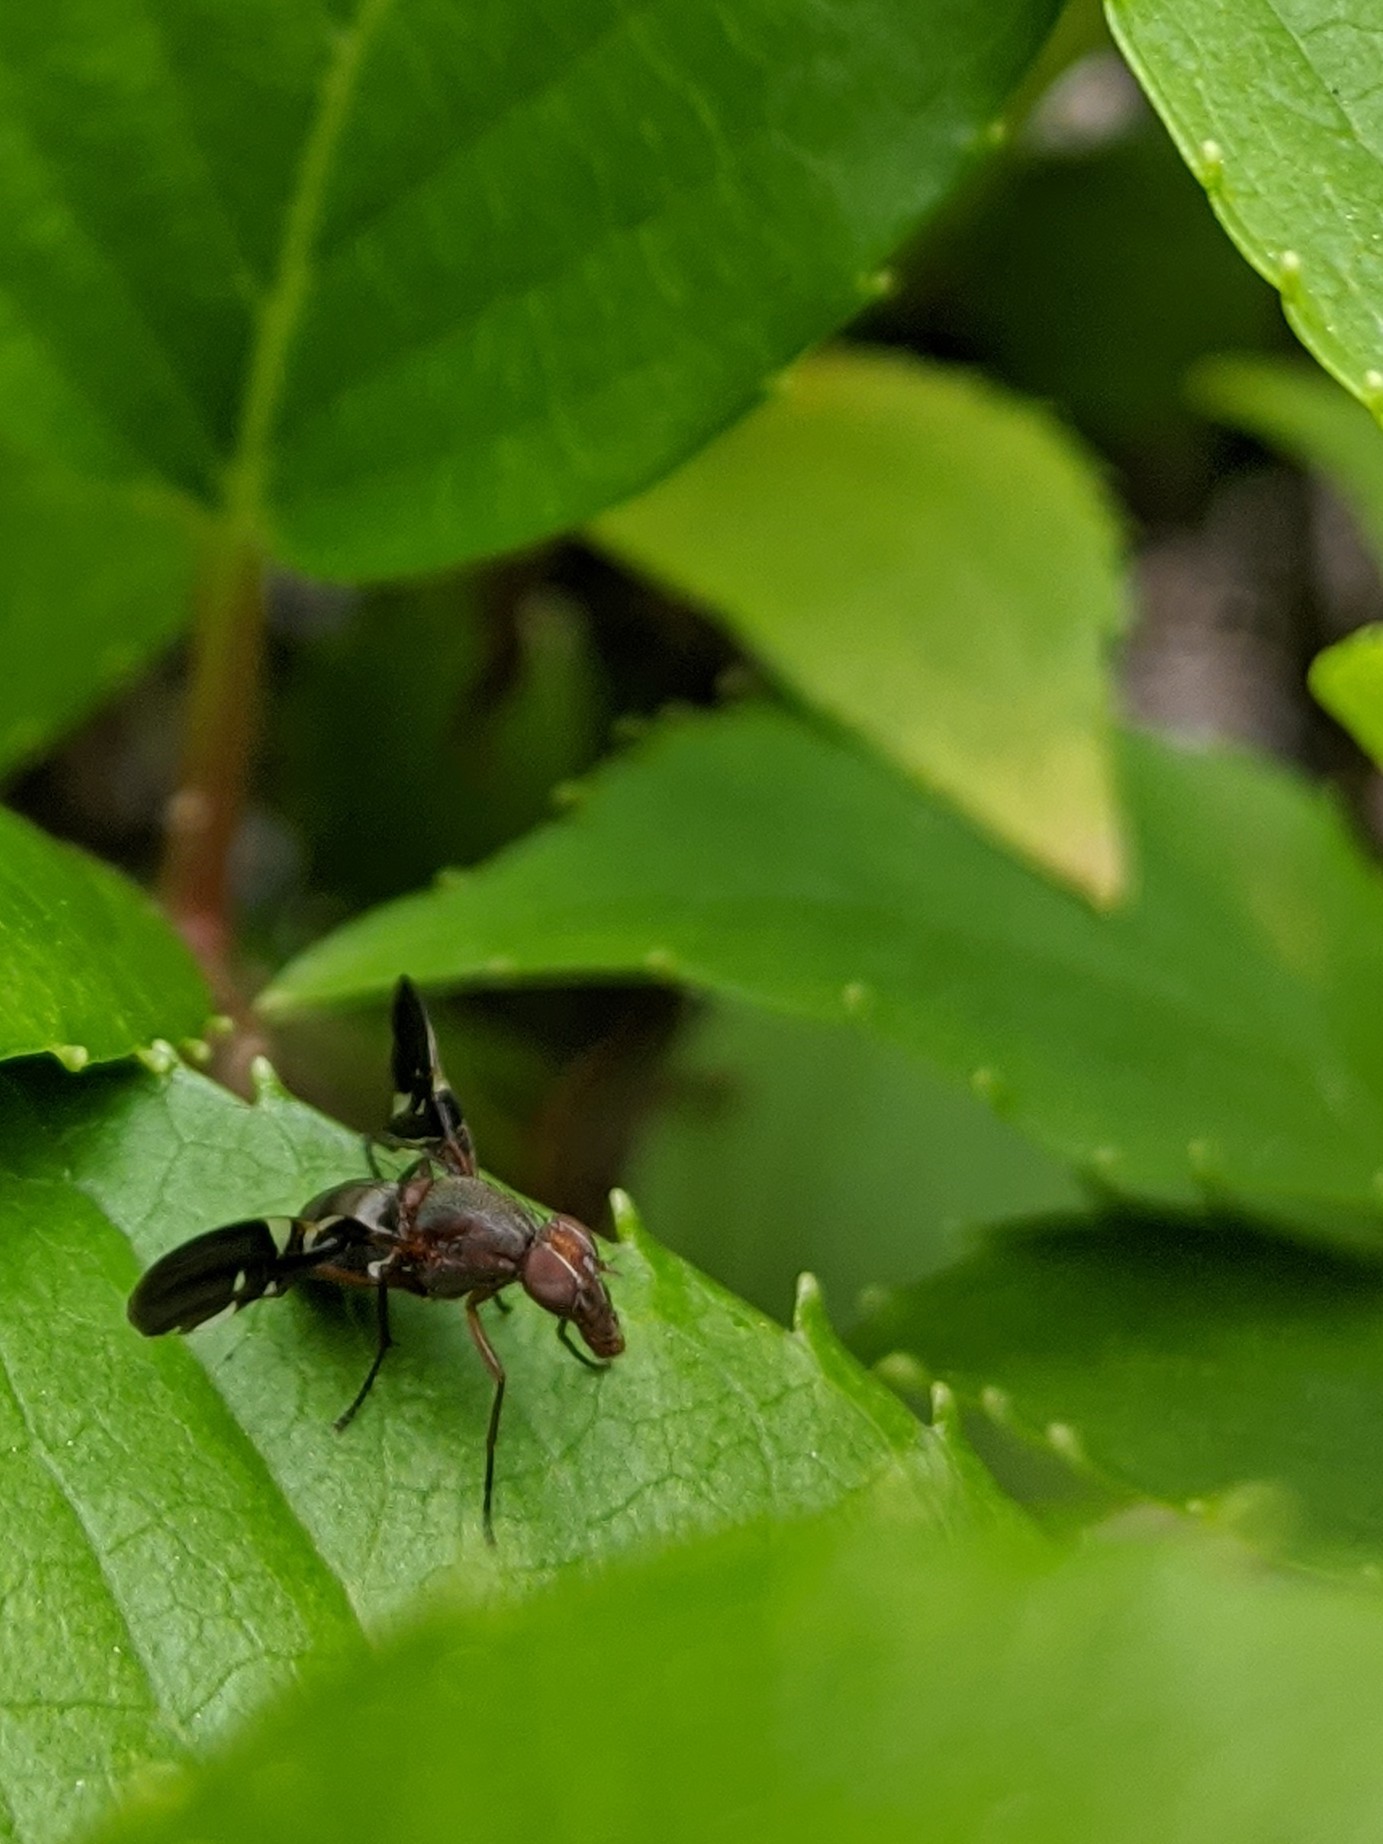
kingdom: Animalia
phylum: Arthropoda
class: Insecta
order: Diptera
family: Ulidiidae
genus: Delphinia
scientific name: Delphinia picta
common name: Common picture-winged fly
